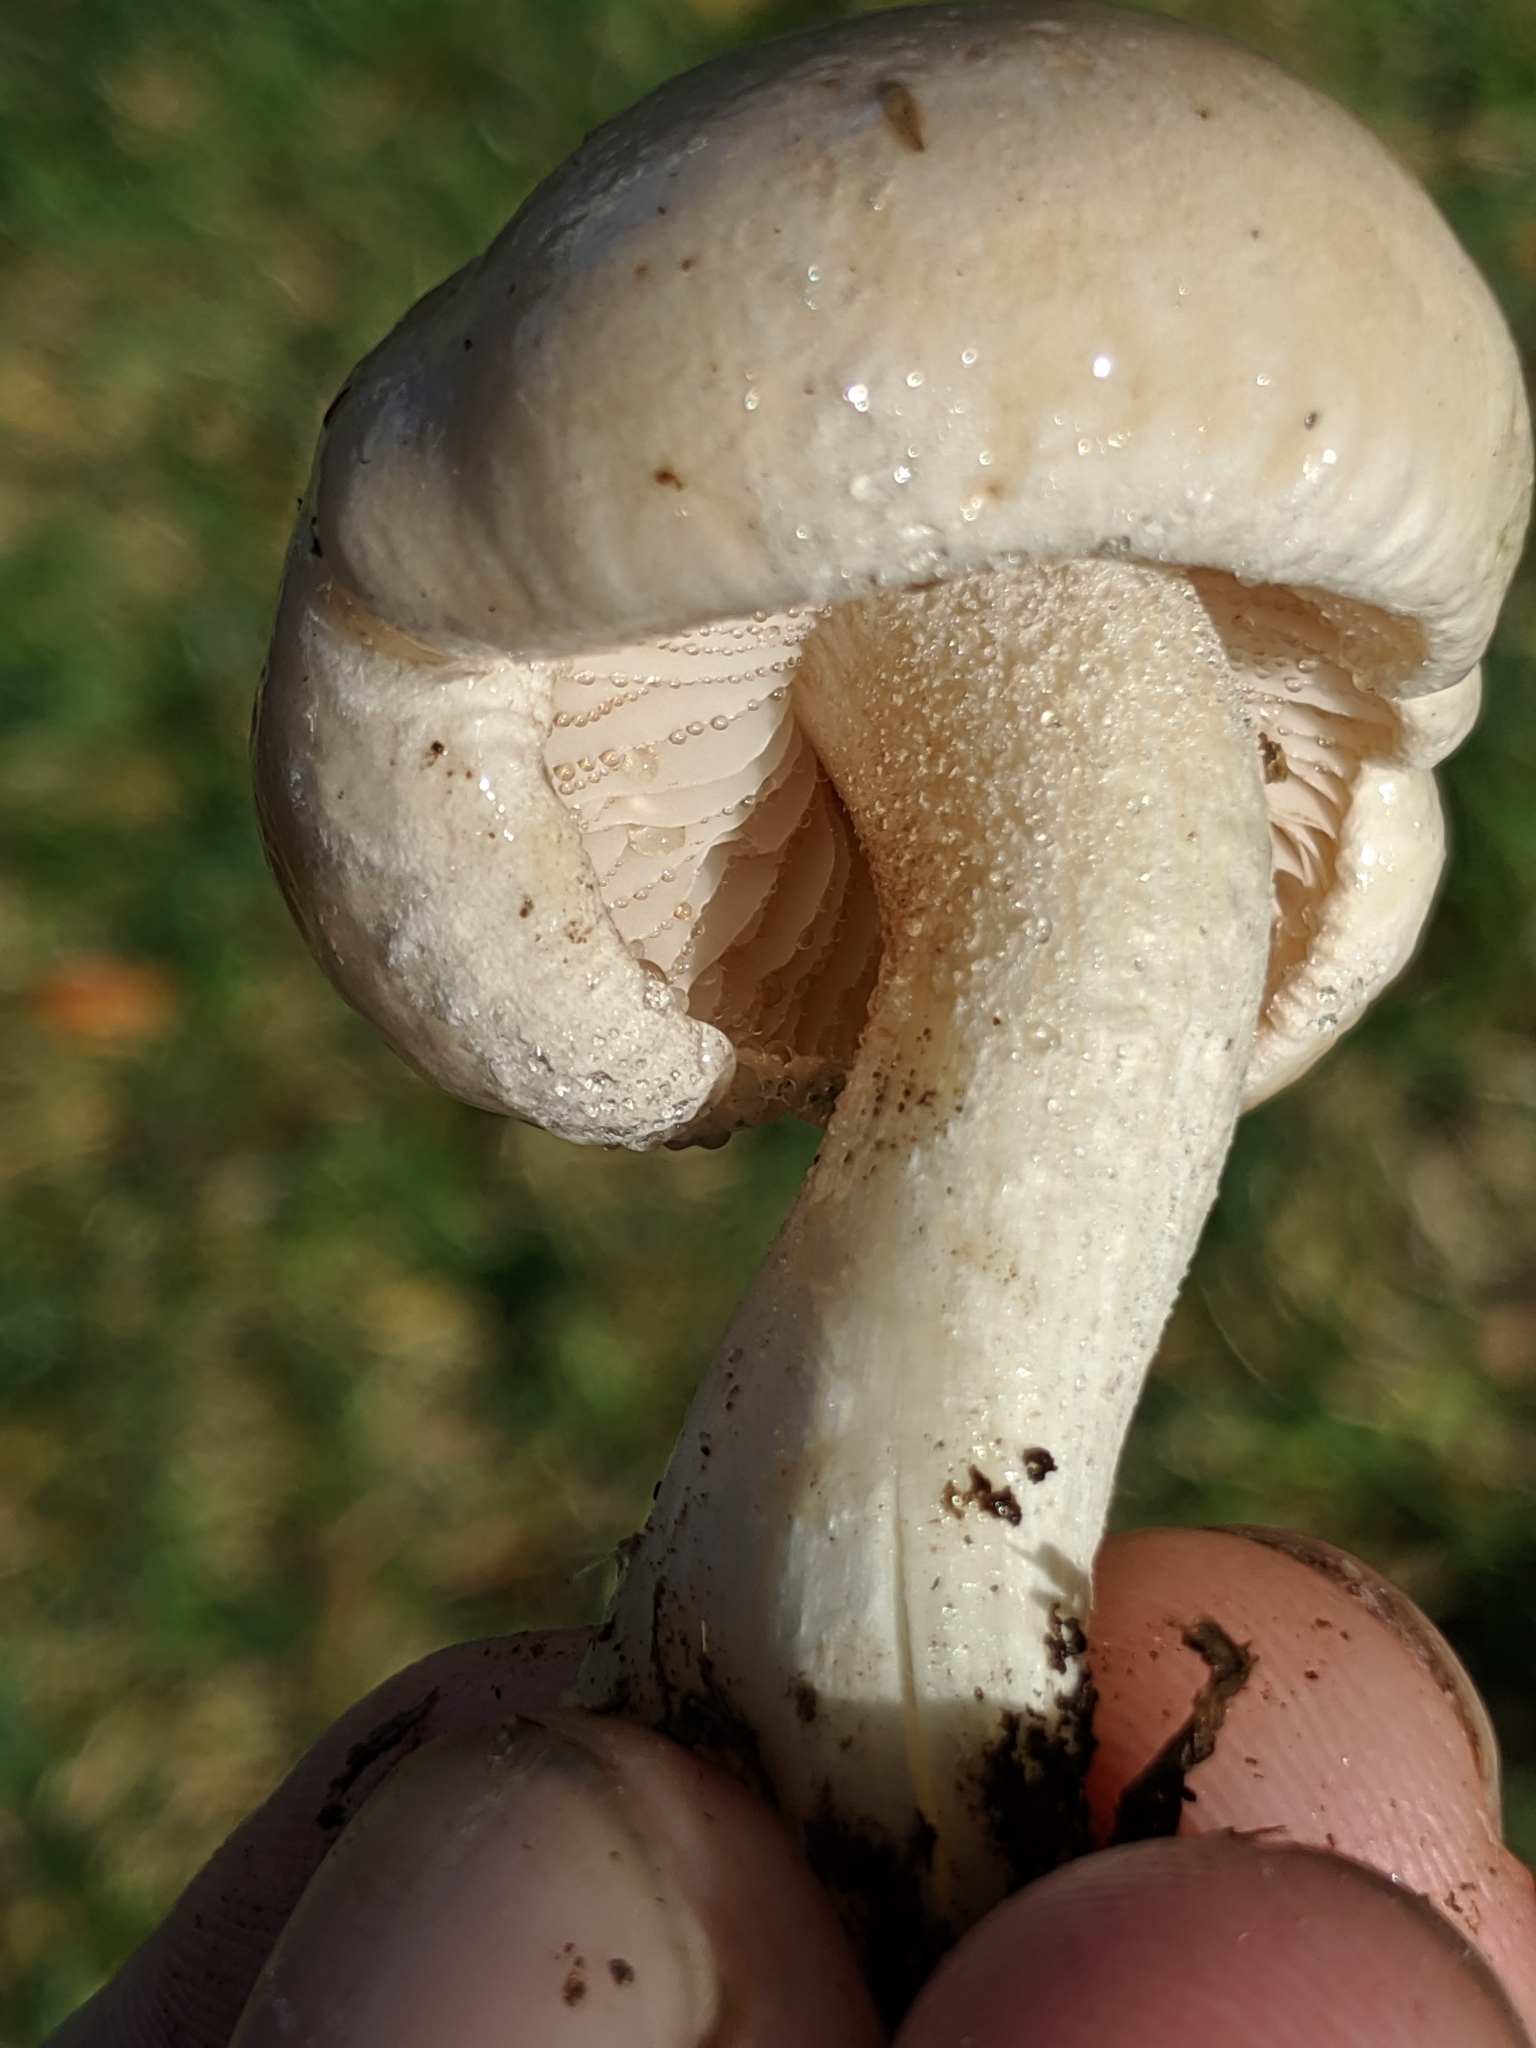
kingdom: Fungi
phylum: Basidiomycota
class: Agaricomycetes
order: Agaricales
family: Hymenogastraceae
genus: Hebeloma
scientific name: Hebeloma crustuliniforme
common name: Poison pie
